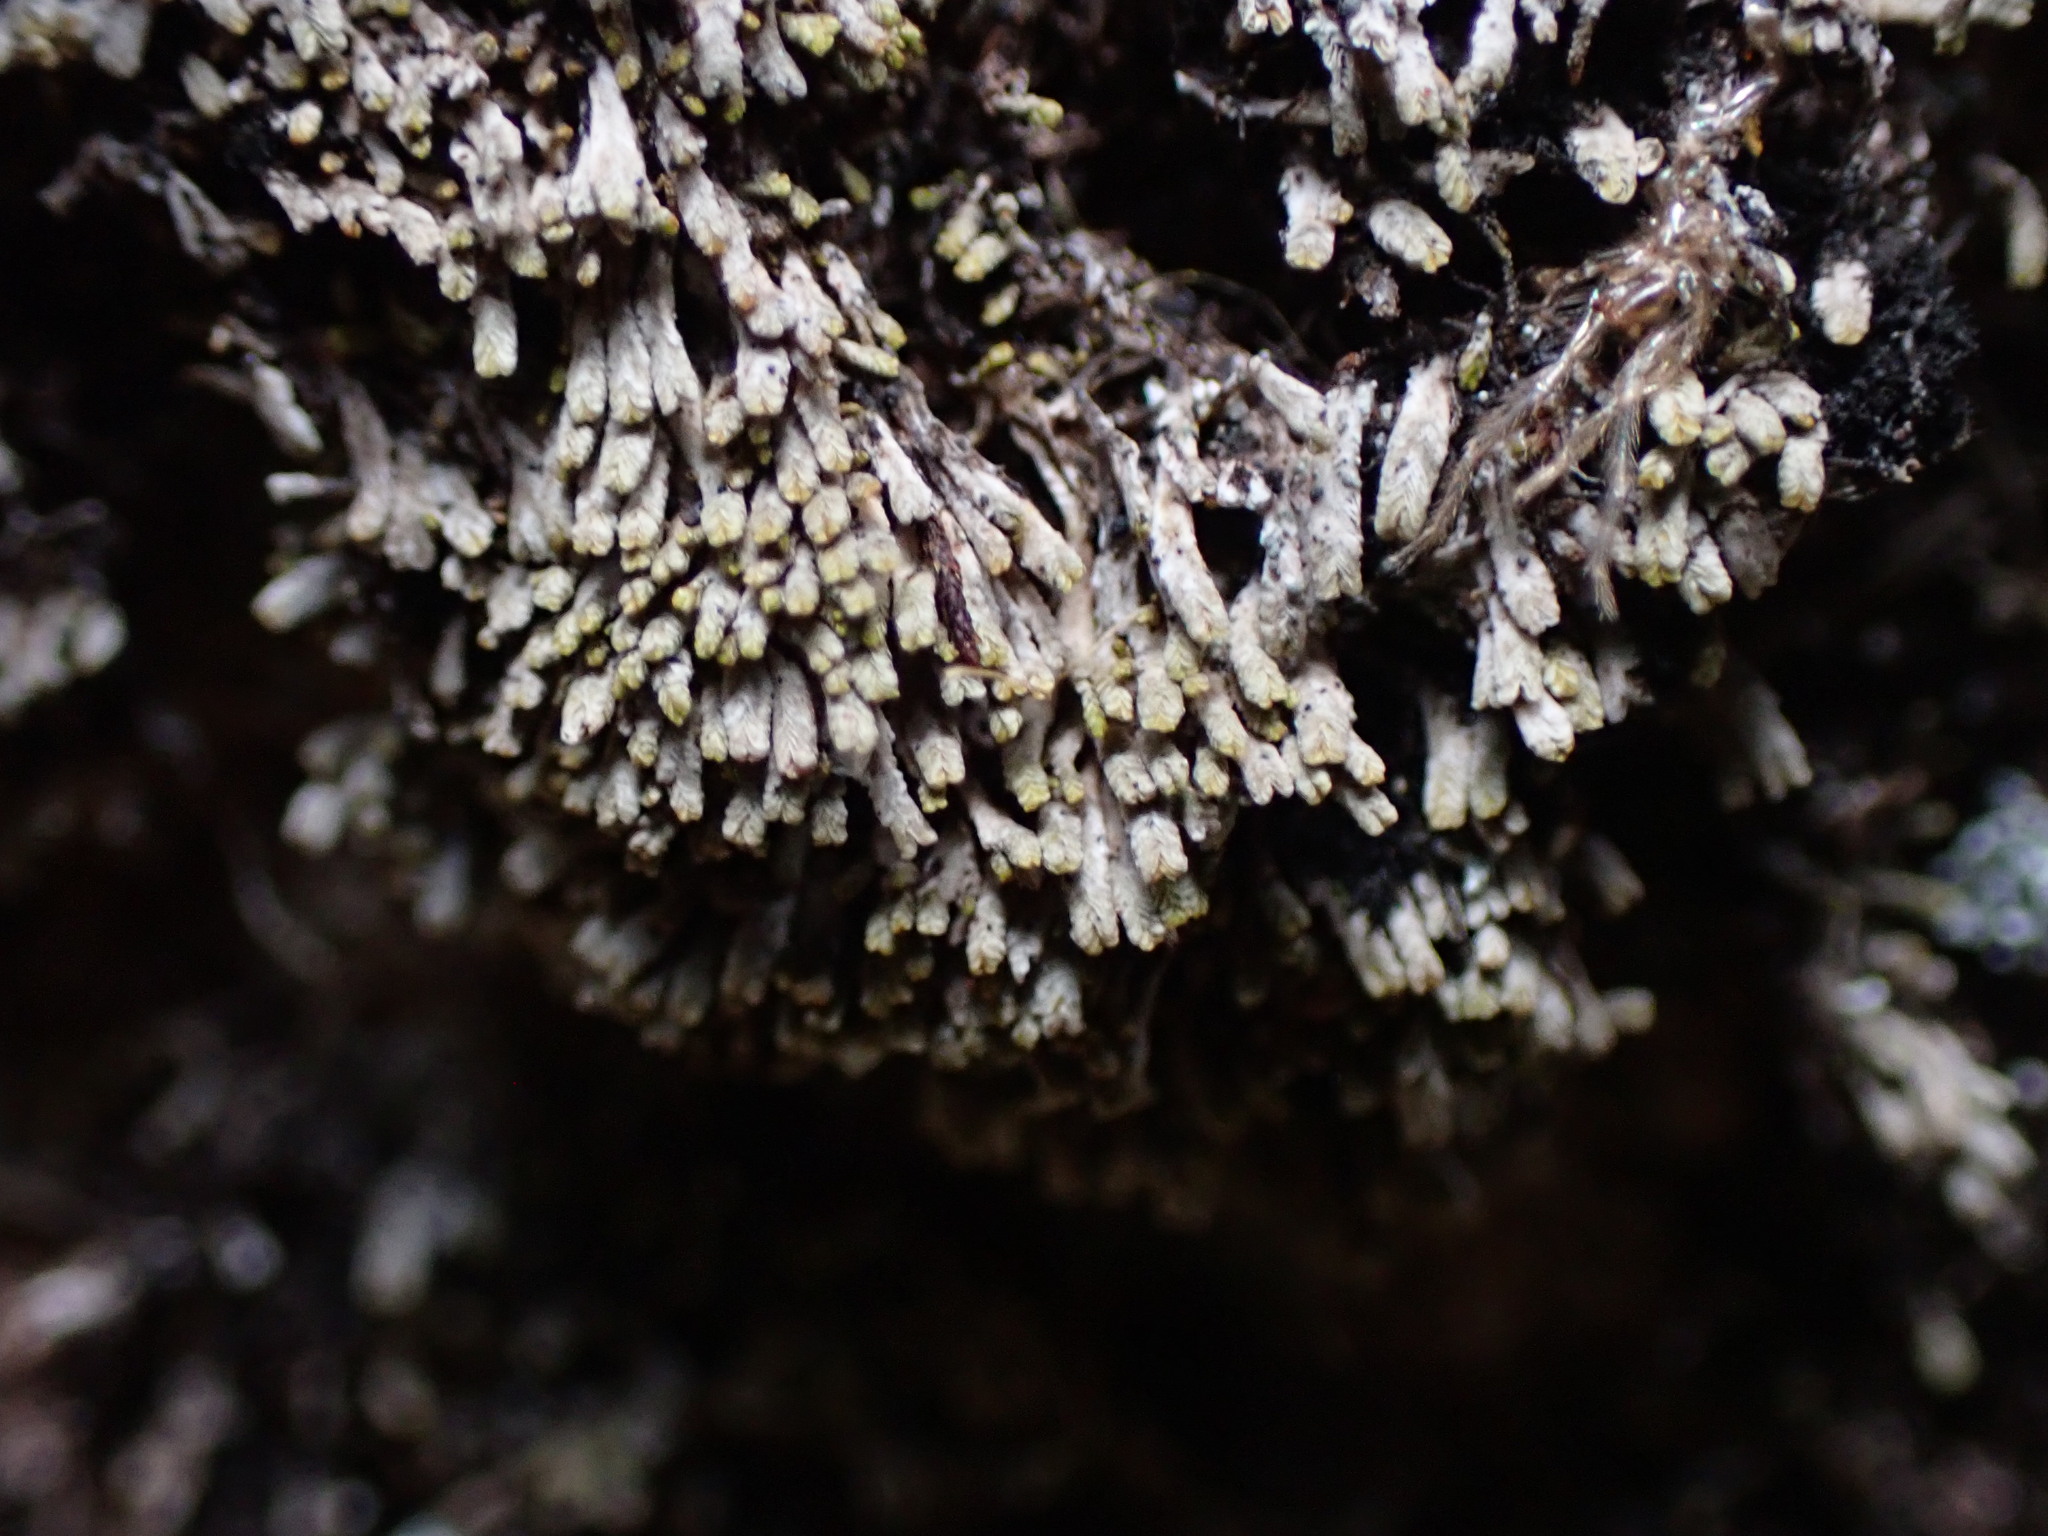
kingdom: Plantae
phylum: Marchantiophyta
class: Jungermanniopsida
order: Jungermanniales
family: Gymnomitriaceae
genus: Gymnomitrion
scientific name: Gymnomitrion obtusum
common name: White frostwort
